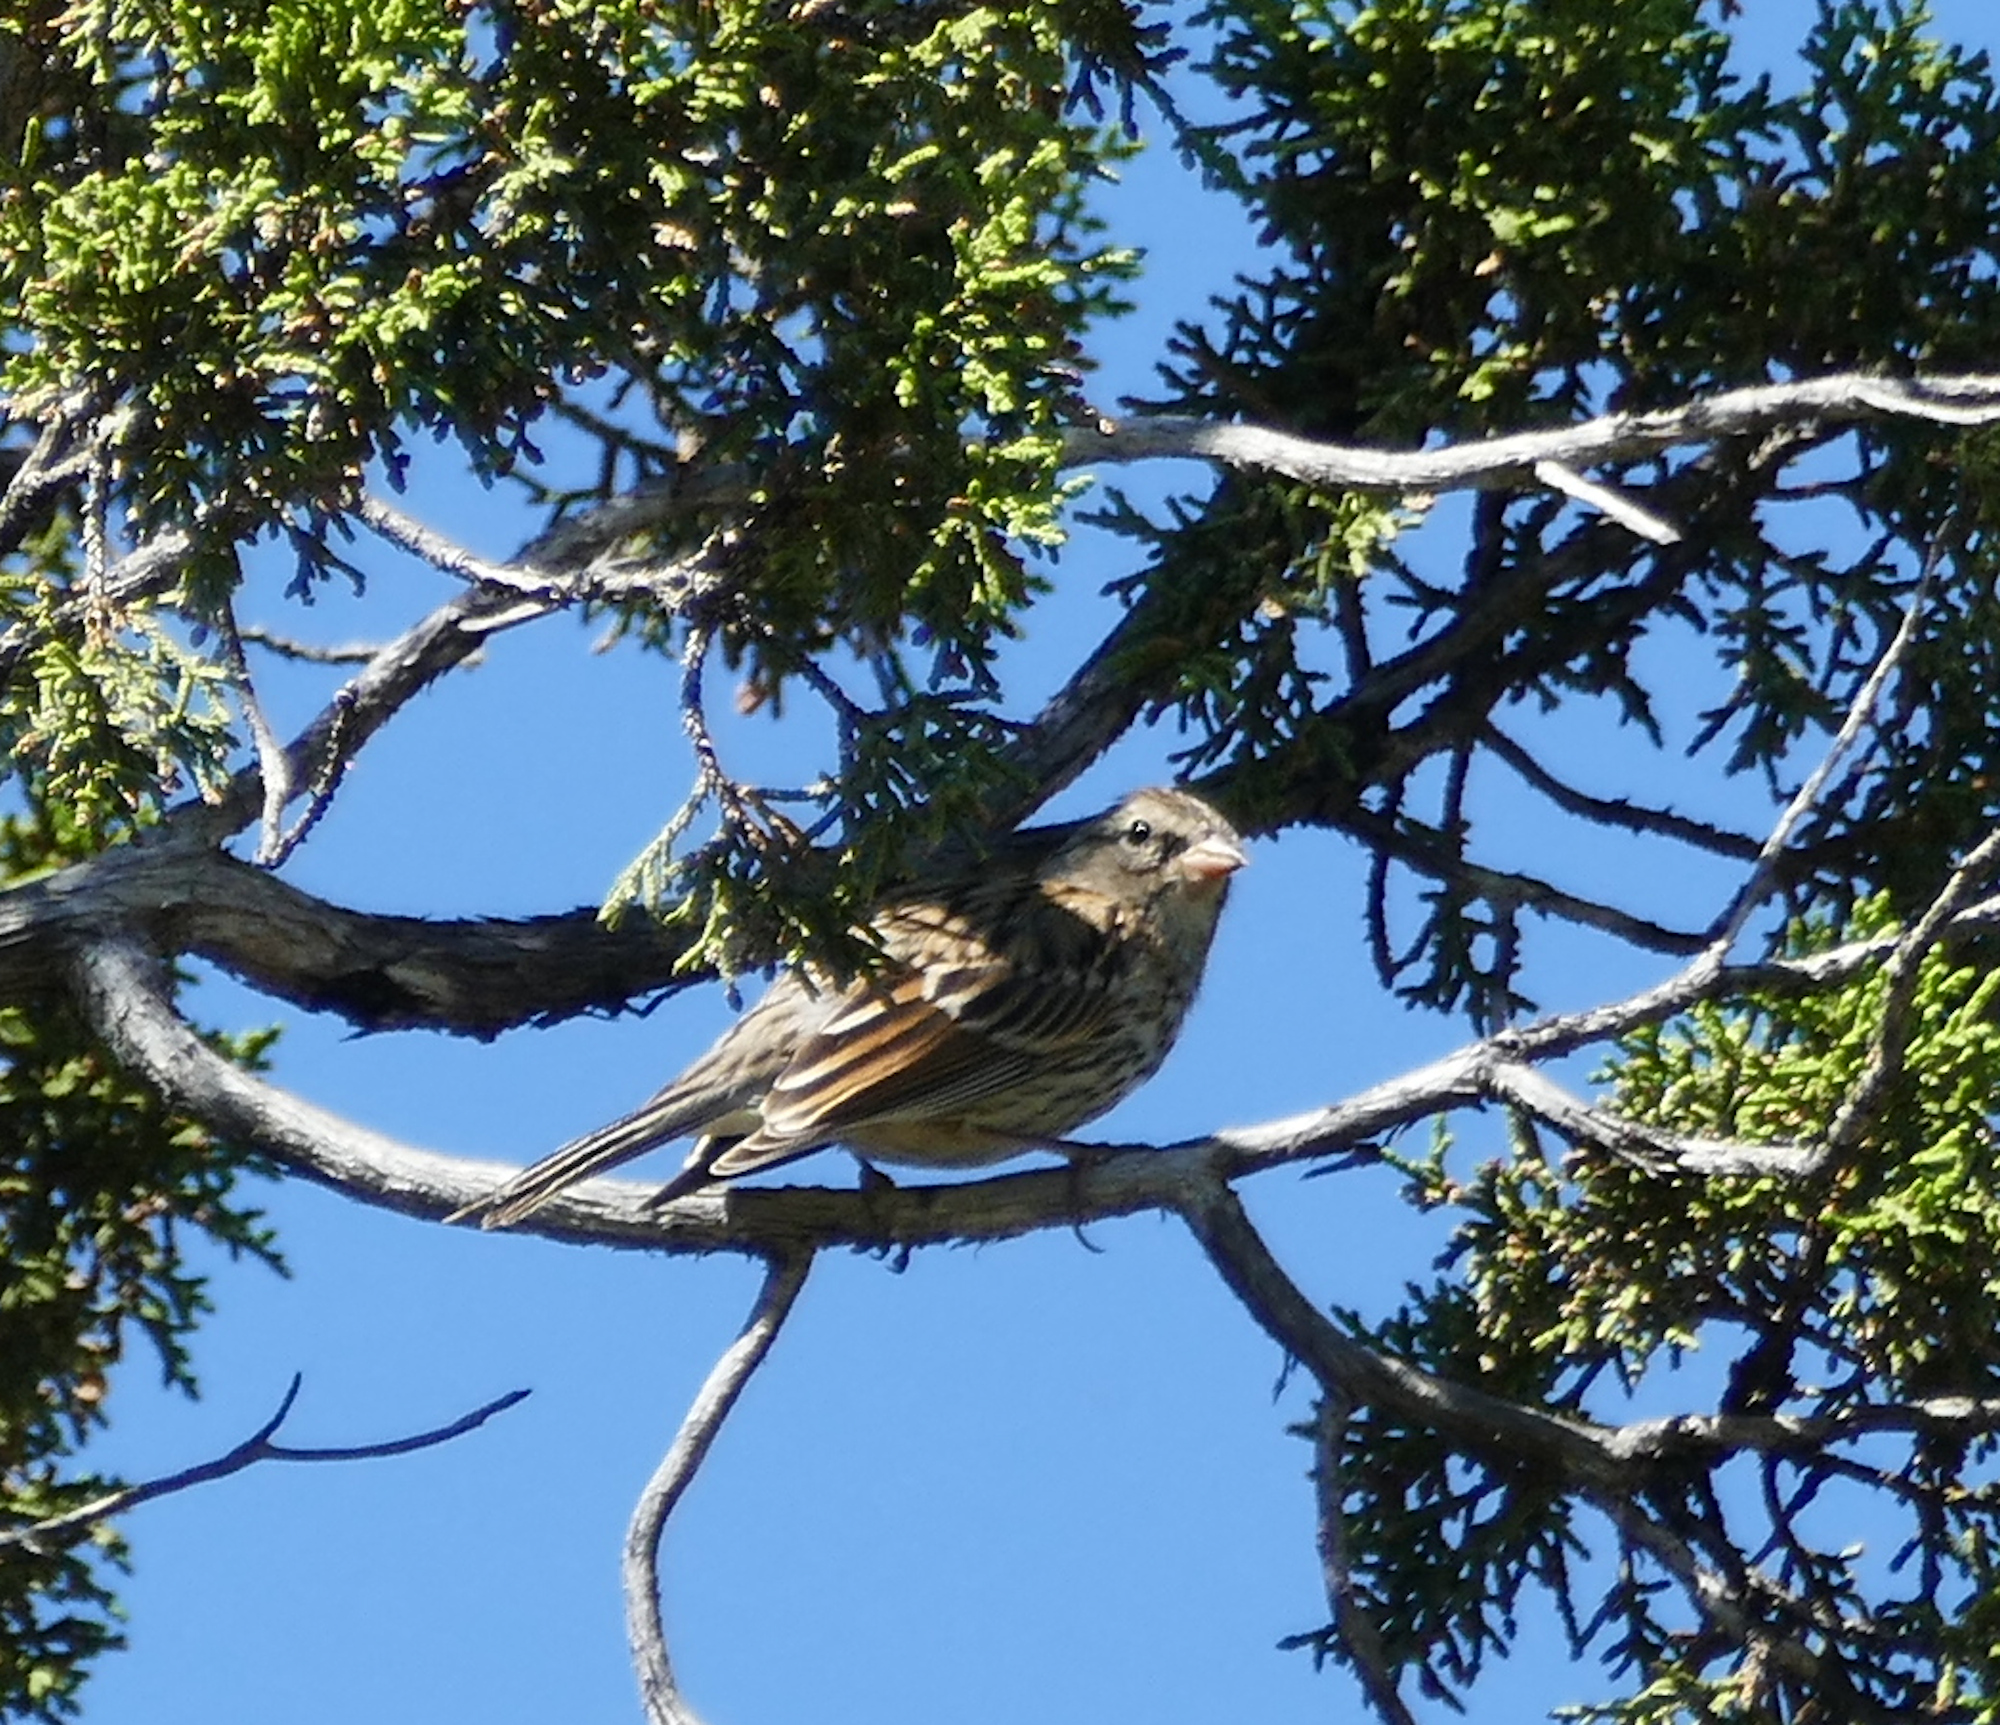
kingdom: Animalia
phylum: Chordata
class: Aves
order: Passeriformes
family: Passerellidae
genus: Spizella
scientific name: Spizella passerina
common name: Chipping sparrow
